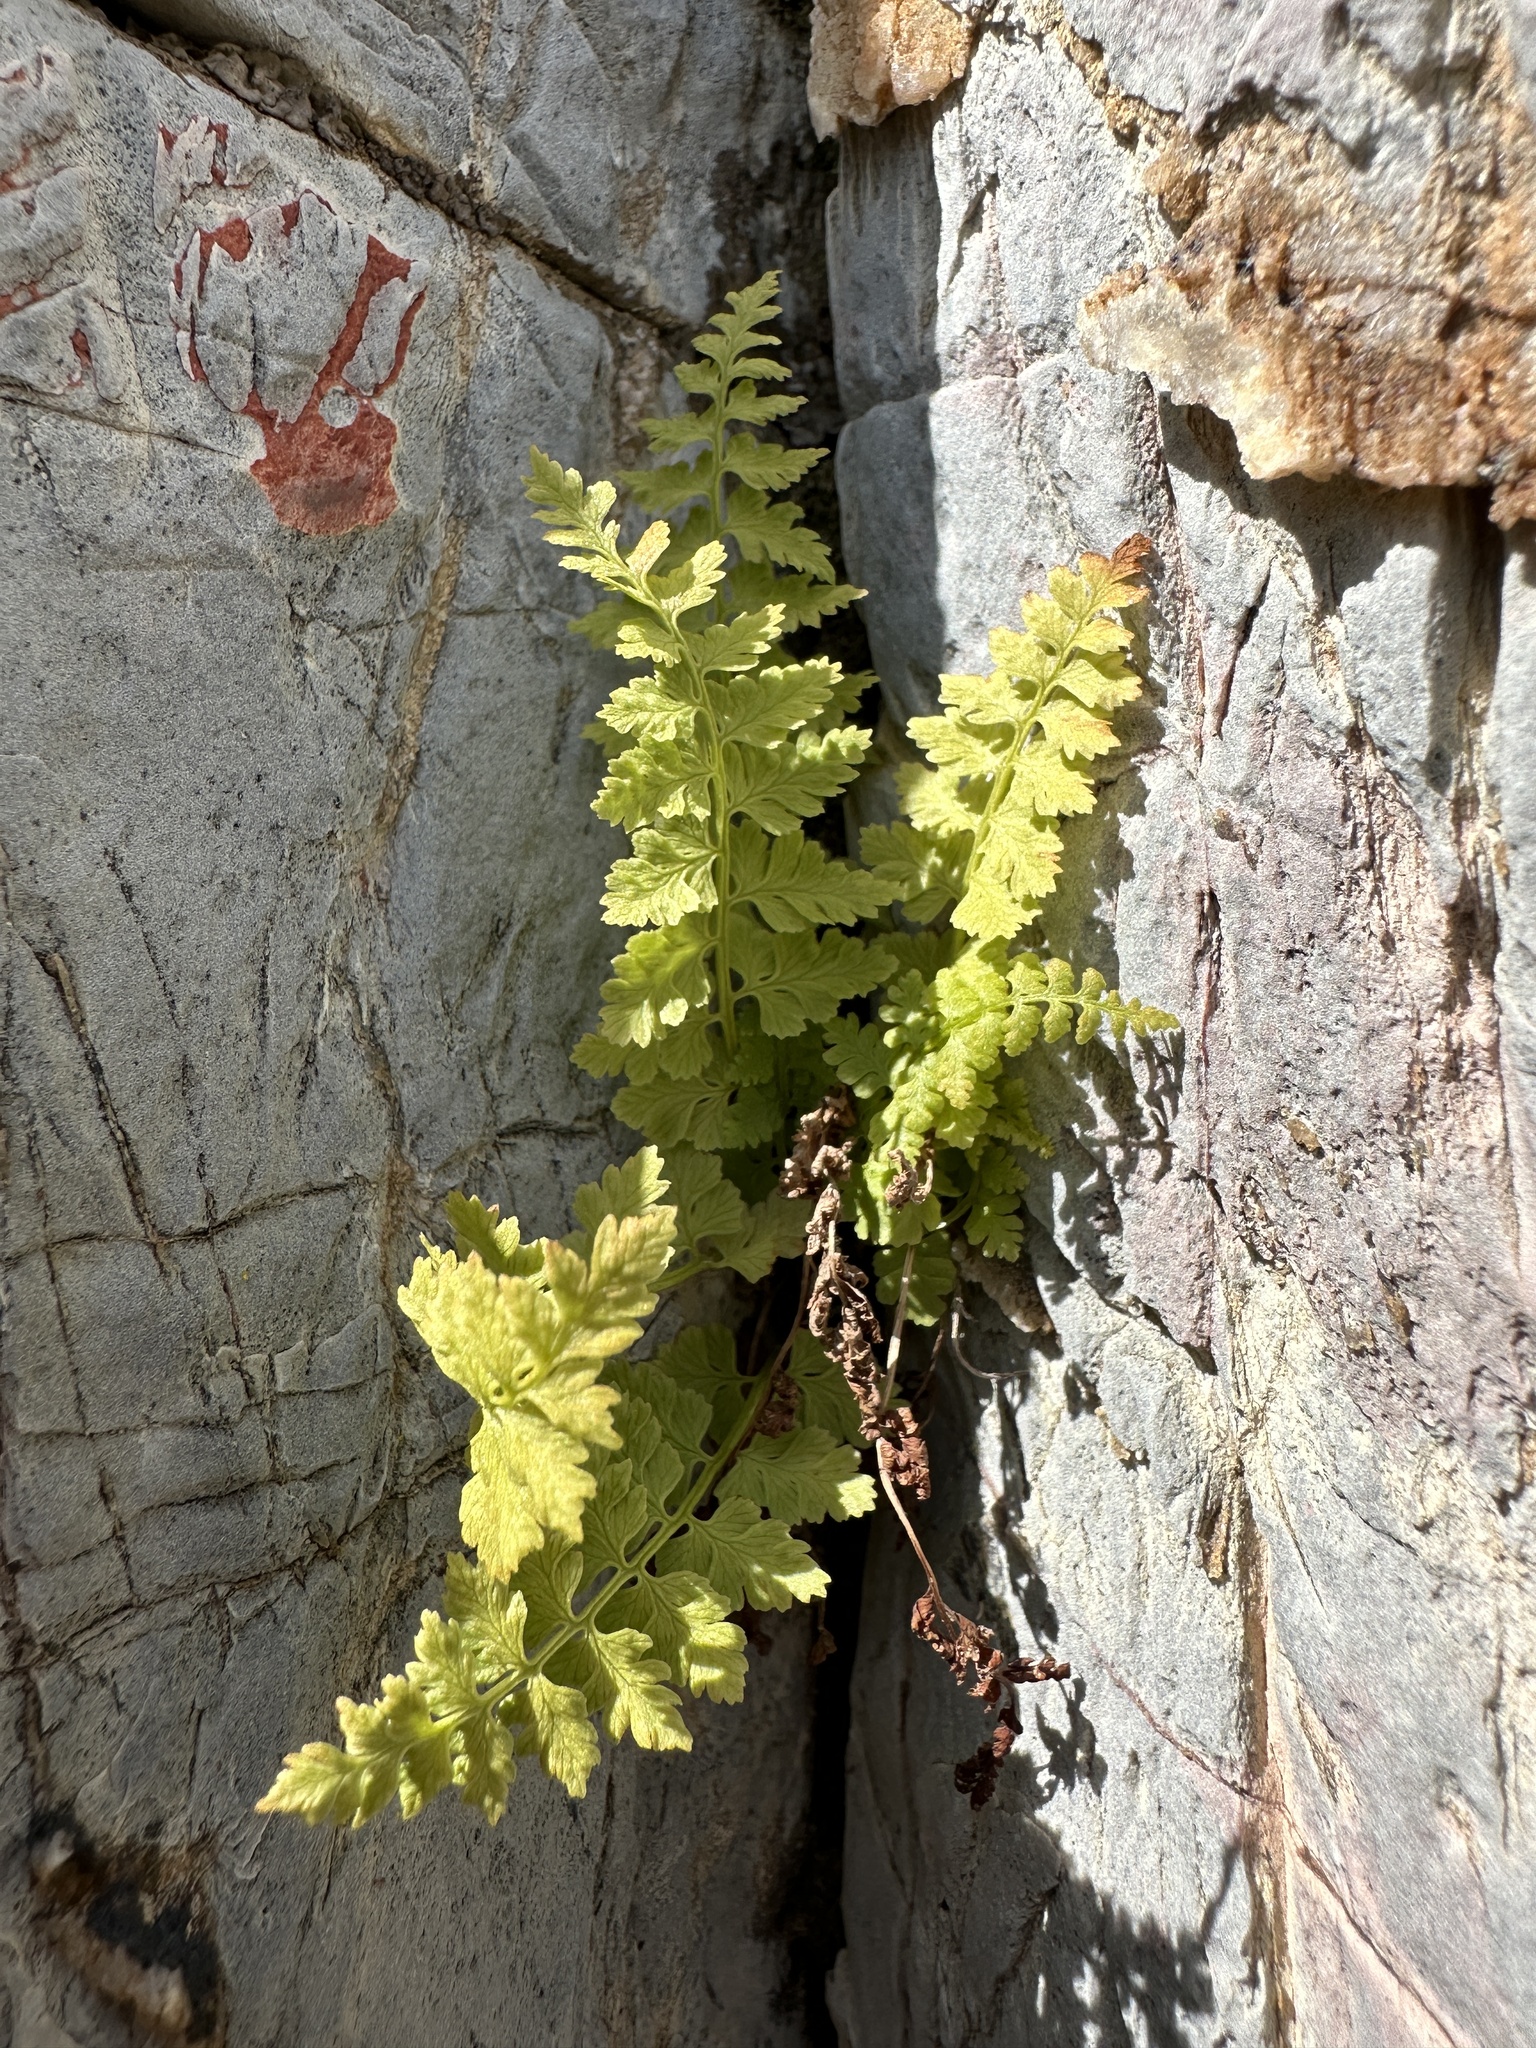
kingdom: Plantae
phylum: Tracheophyta
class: Polypodiopsida
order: Polypodiales
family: Cystopteridaceae
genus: Cystopteris
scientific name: Cystopteris fragilis
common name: Brittle bladder fern
